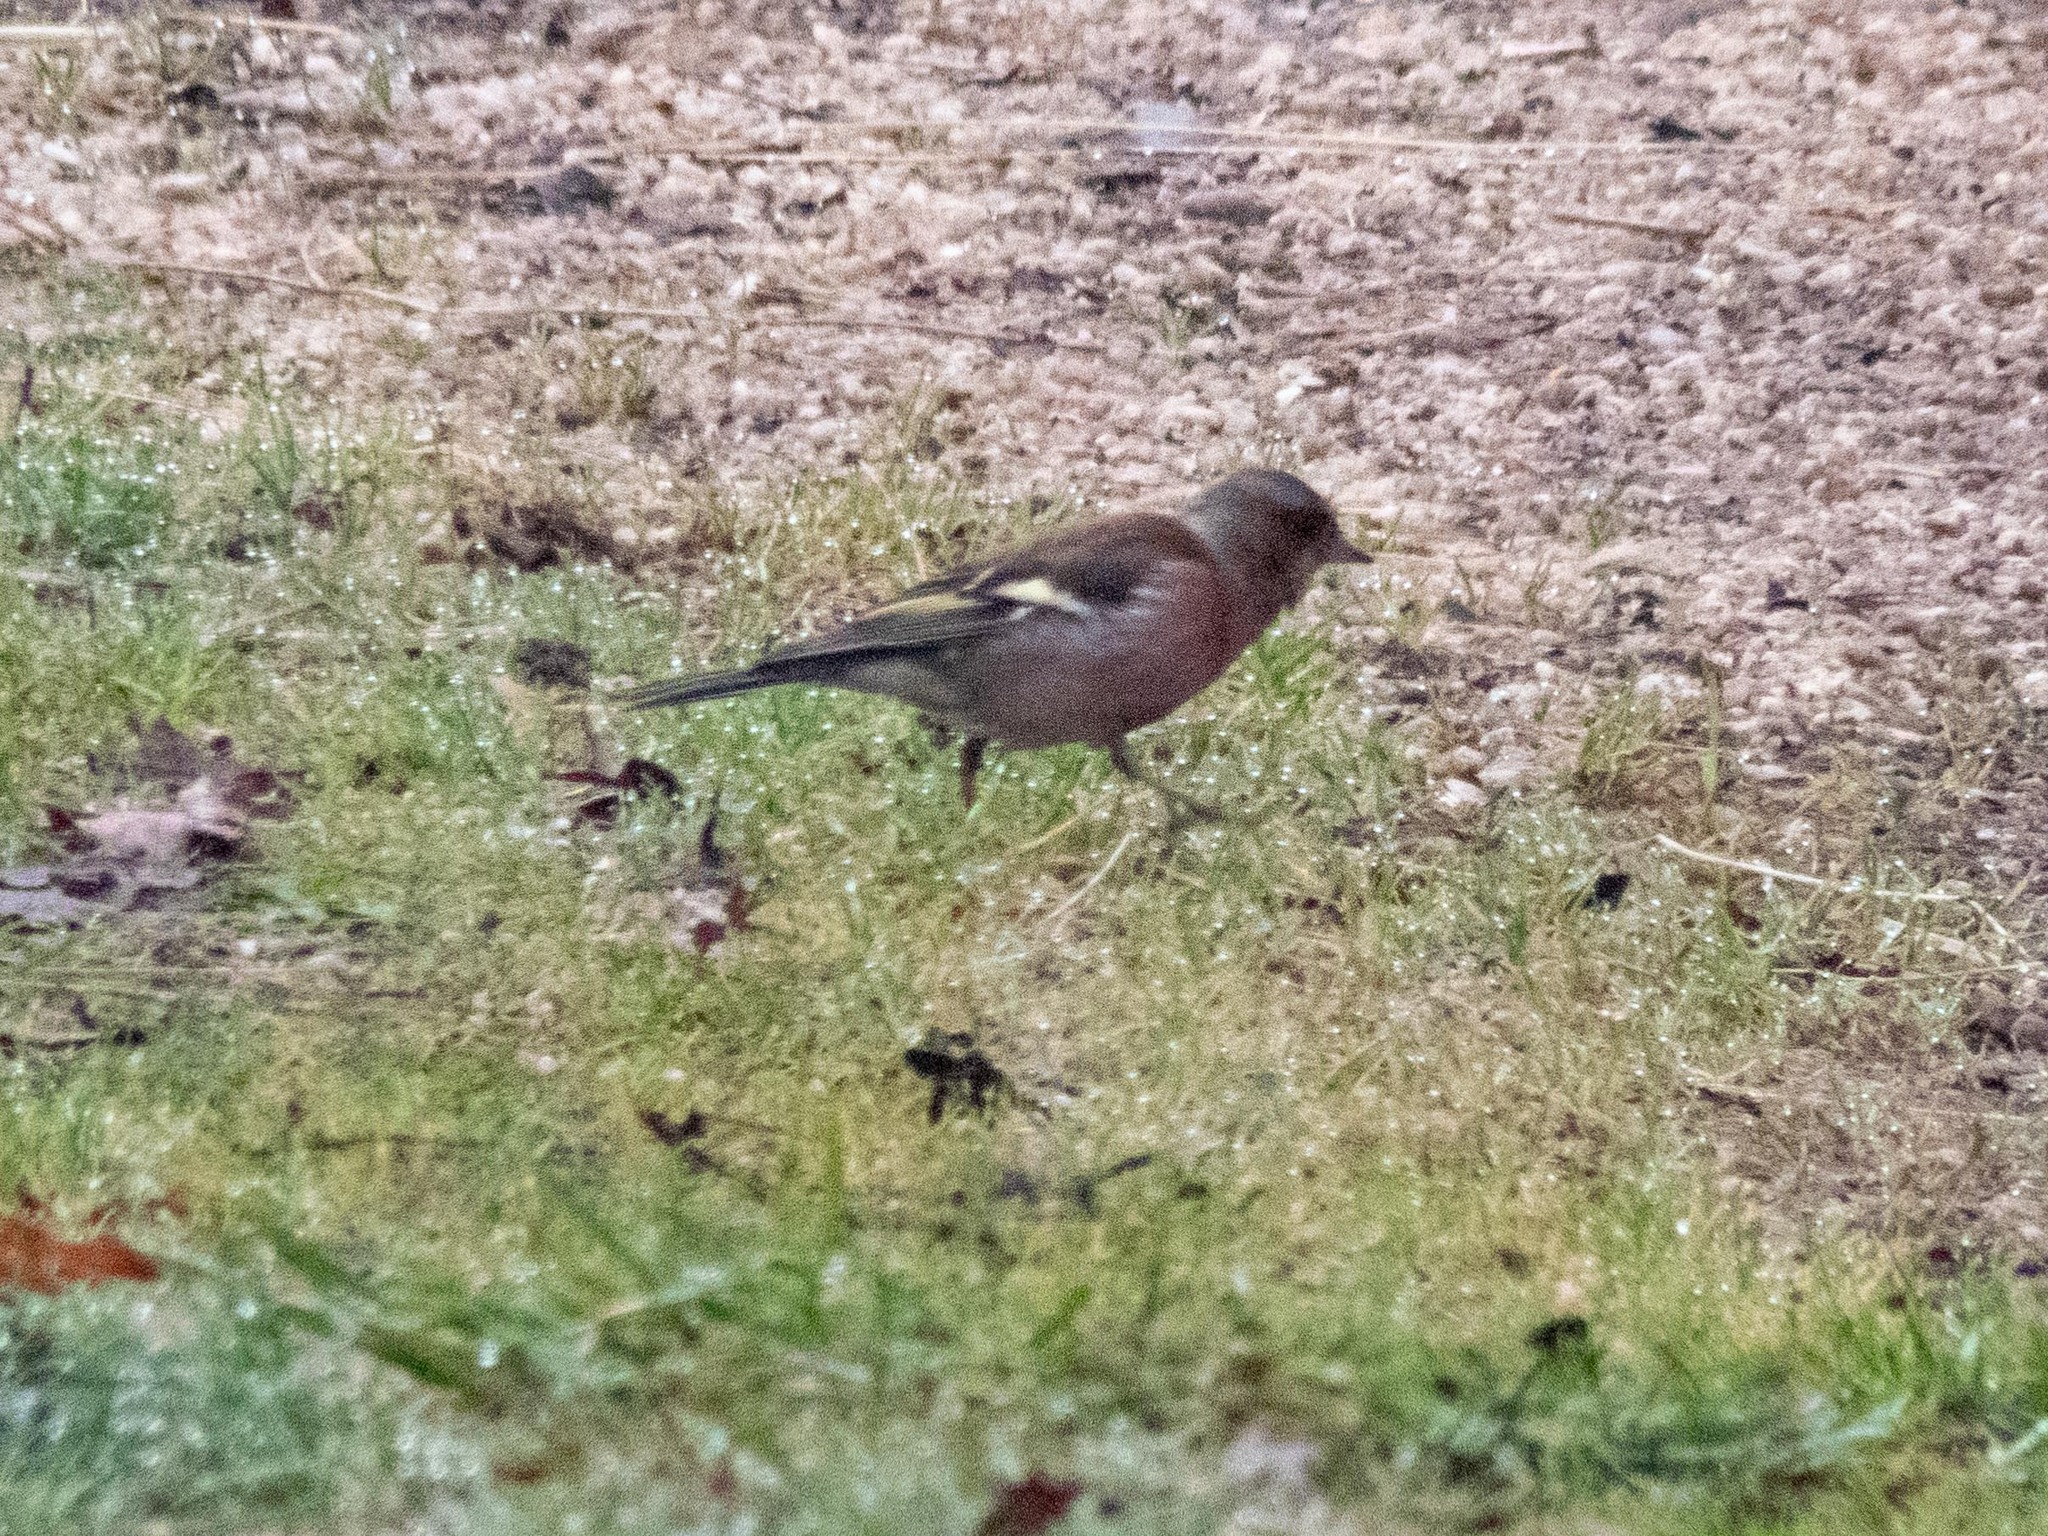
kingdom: Animalia
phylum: Chordata
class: Aves
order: Passeriformes
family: Fringillidae
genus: Fringilla
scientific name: Fringilla coelebs
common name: Common chaffinch
